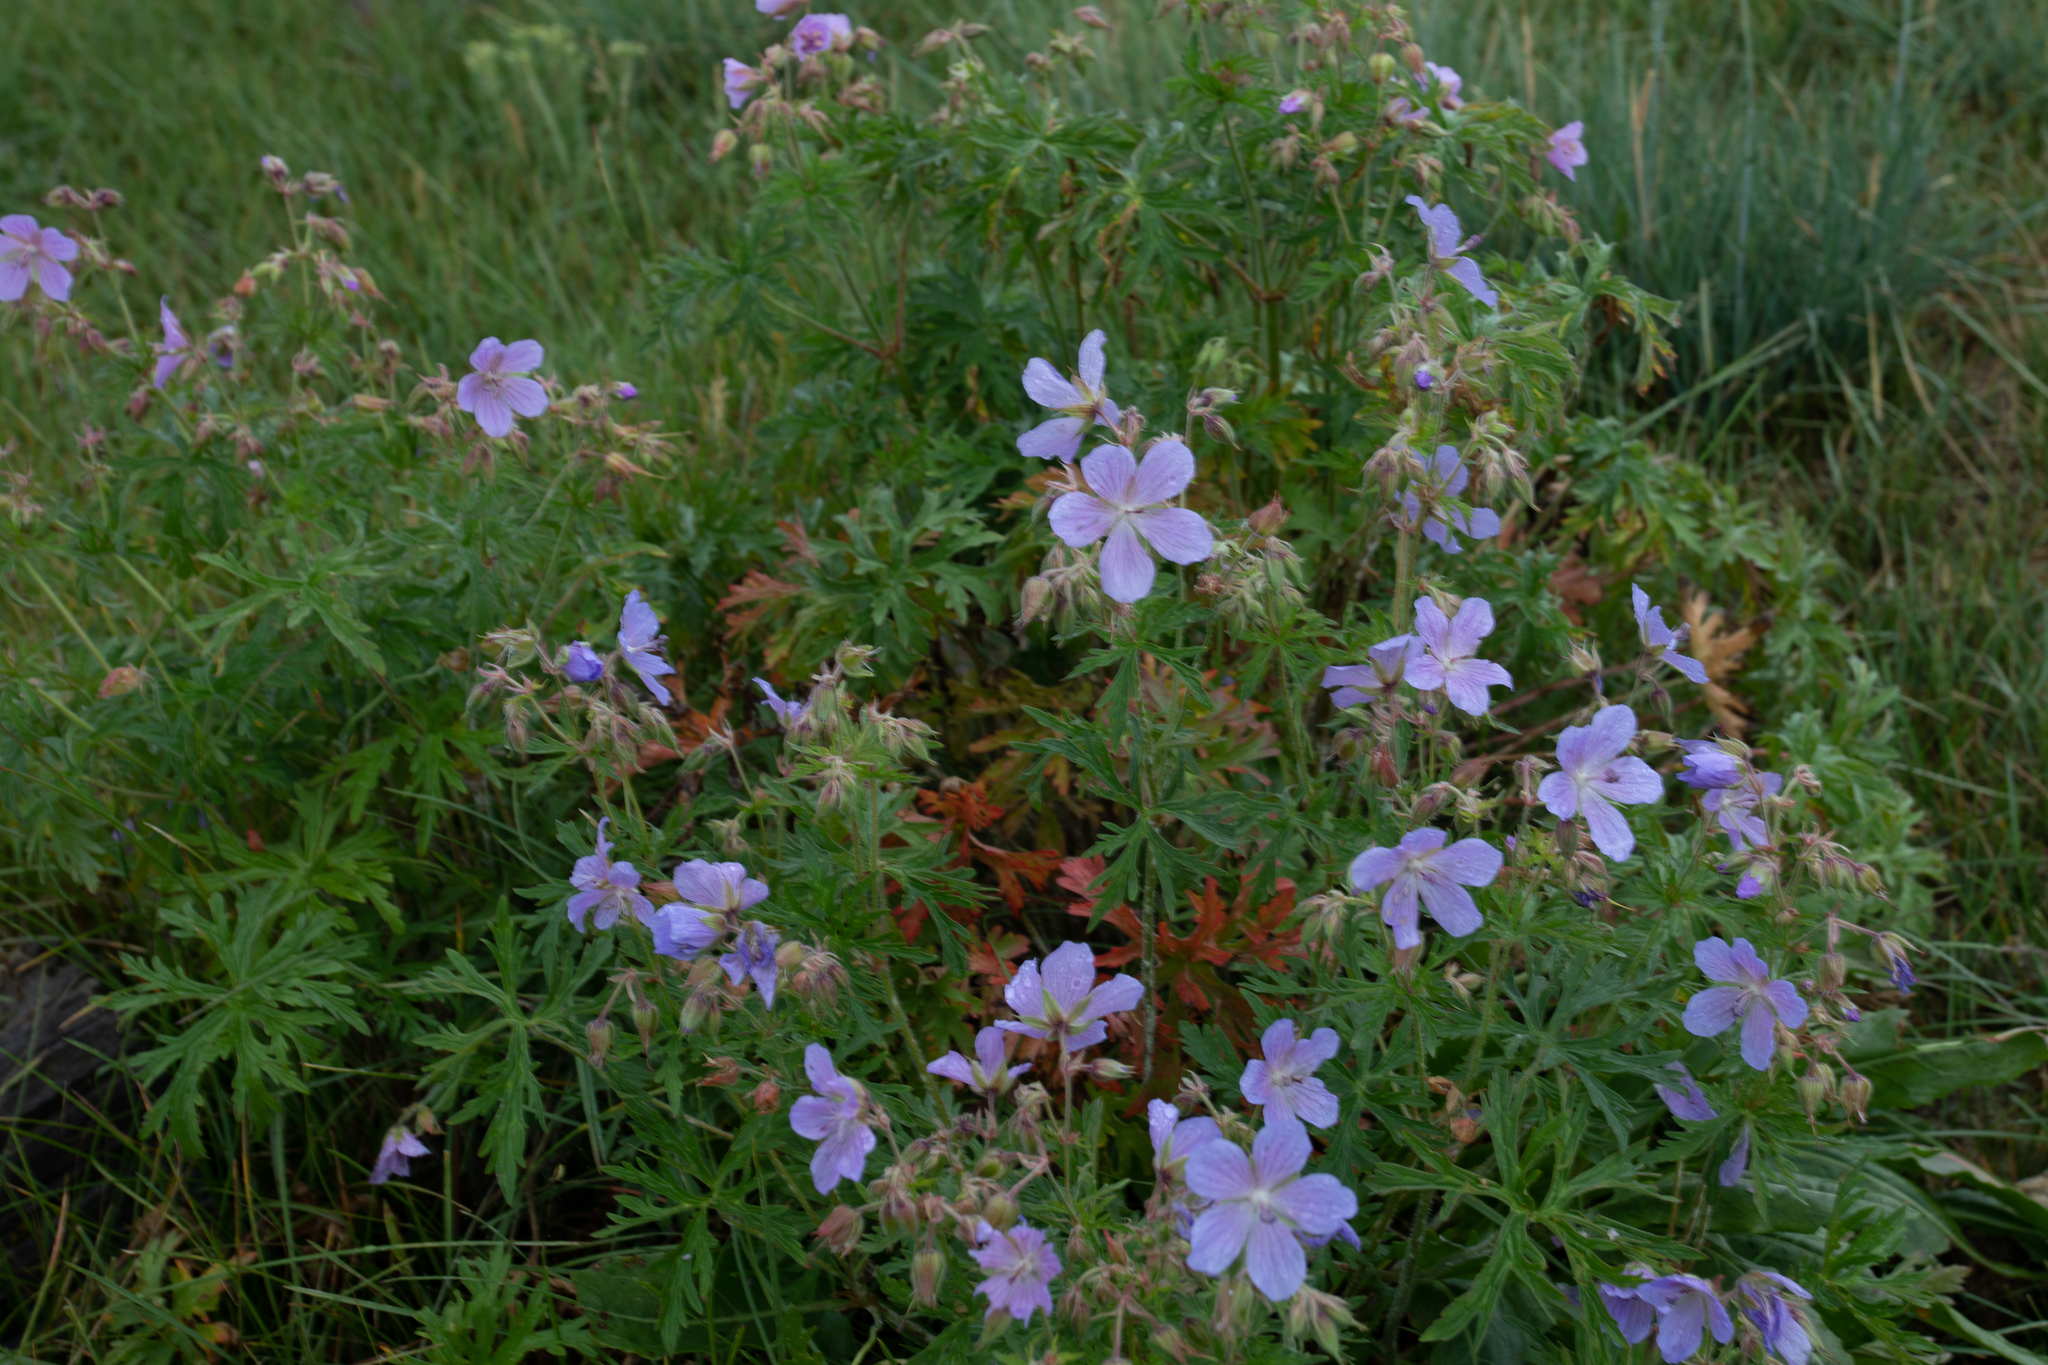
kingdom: Plantae
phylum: Tracheophyta
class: Magnoliopsida
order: Geraniales
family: Geraniaceae
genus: Geranium
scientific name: Geranium pratense
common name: Meadow crane's-bill
